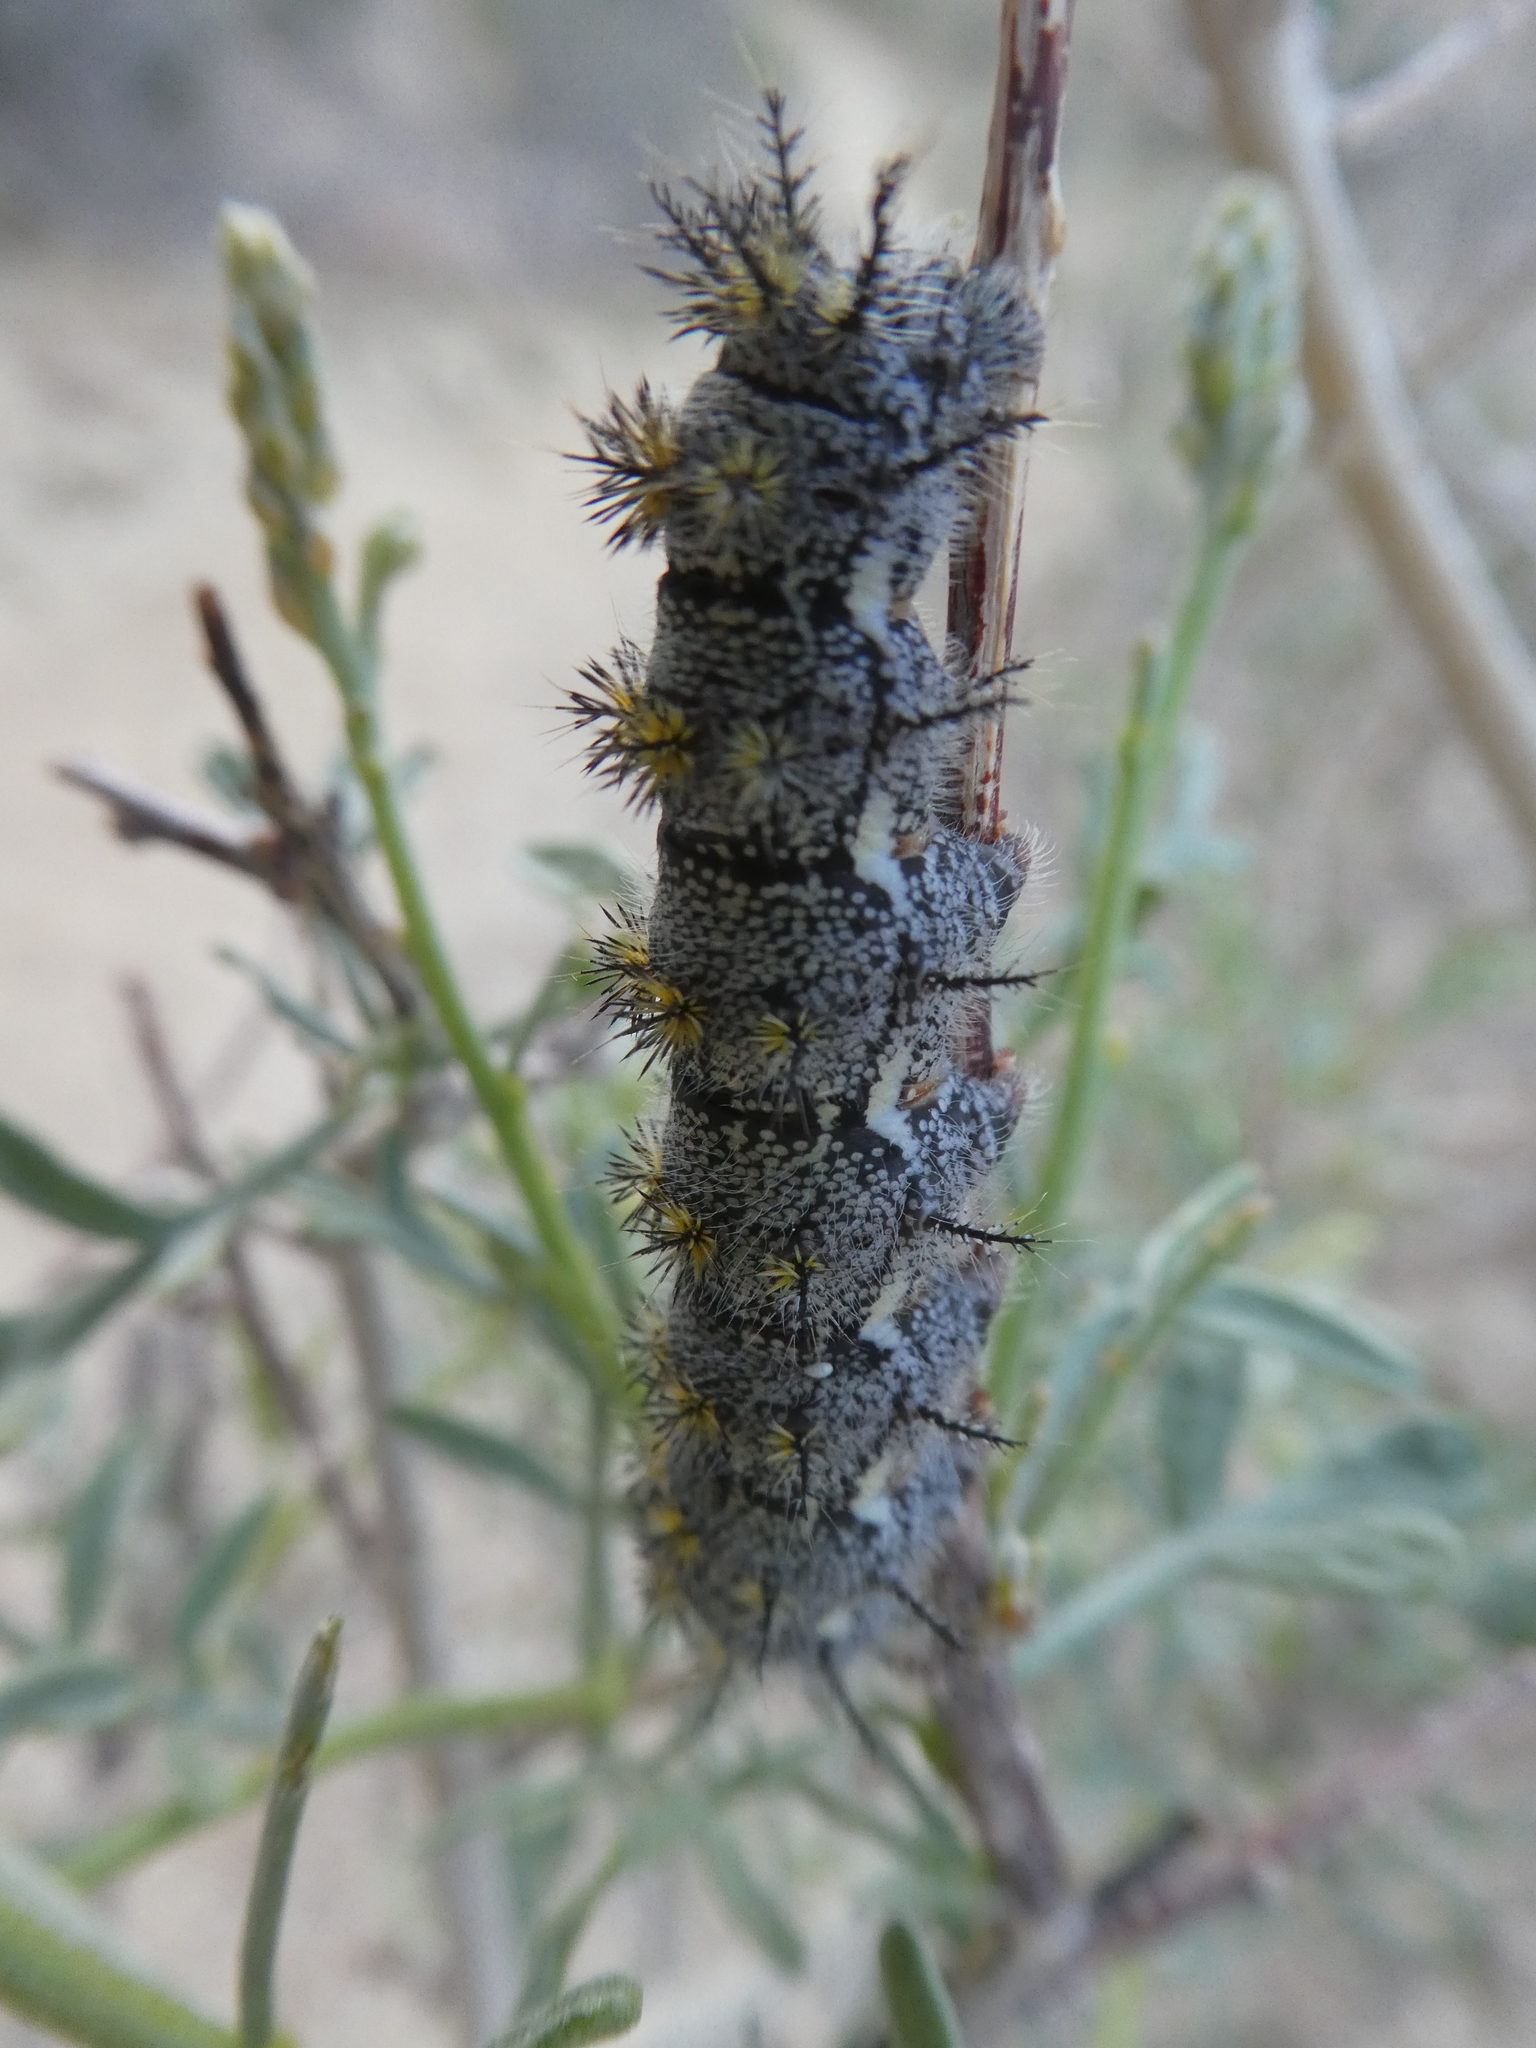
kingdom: Animalia
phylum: Arthropoda
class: Insecta
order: Lepidoptera
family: Saturniidae
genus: Hemileuca
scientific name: Hemileuca burnsi
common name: Burns' buckmoth
